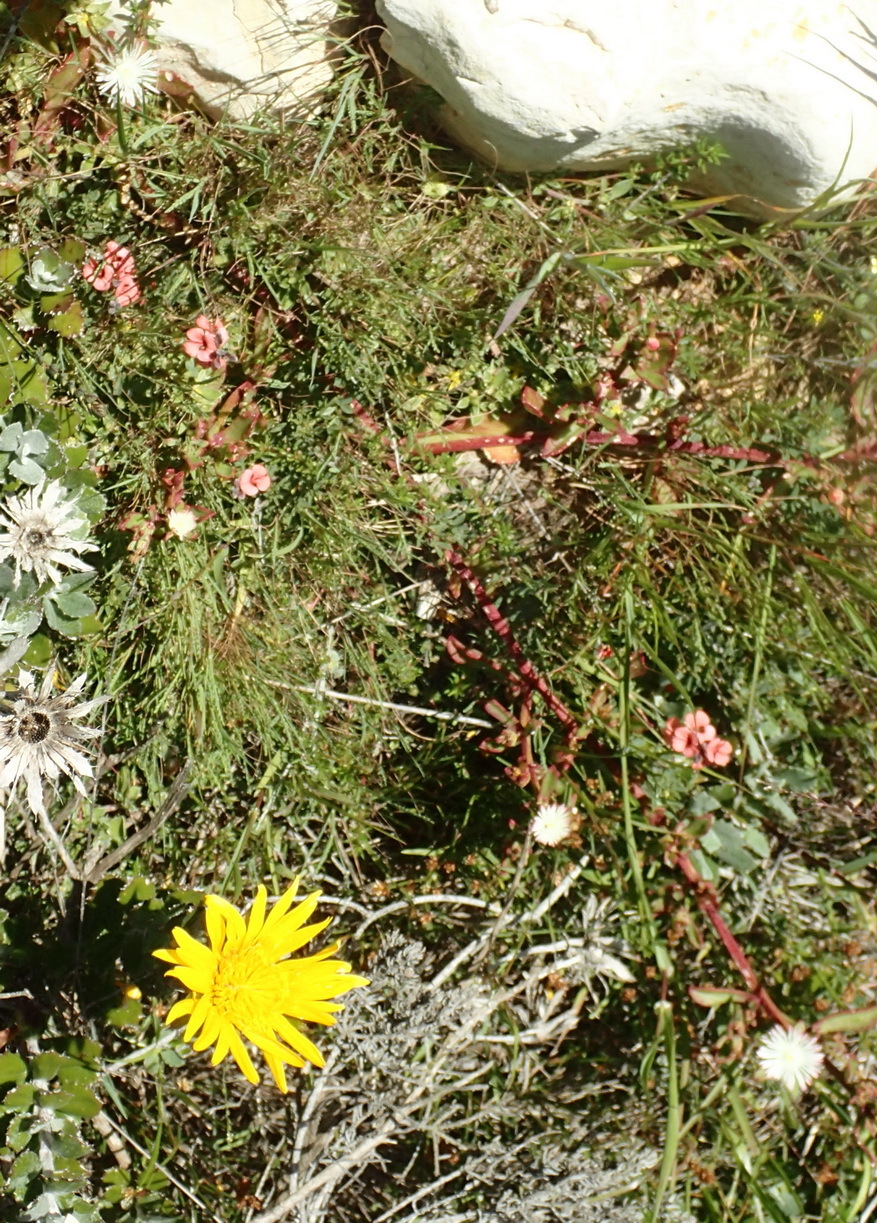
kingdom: Plantae
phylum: Tracheophyta
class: Magnoliopsida
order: Caryophyllales
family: Aizoaceae
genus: Mesembryanthemum
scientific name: Mesembryanthemum aitonis
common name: Angled iceplant
